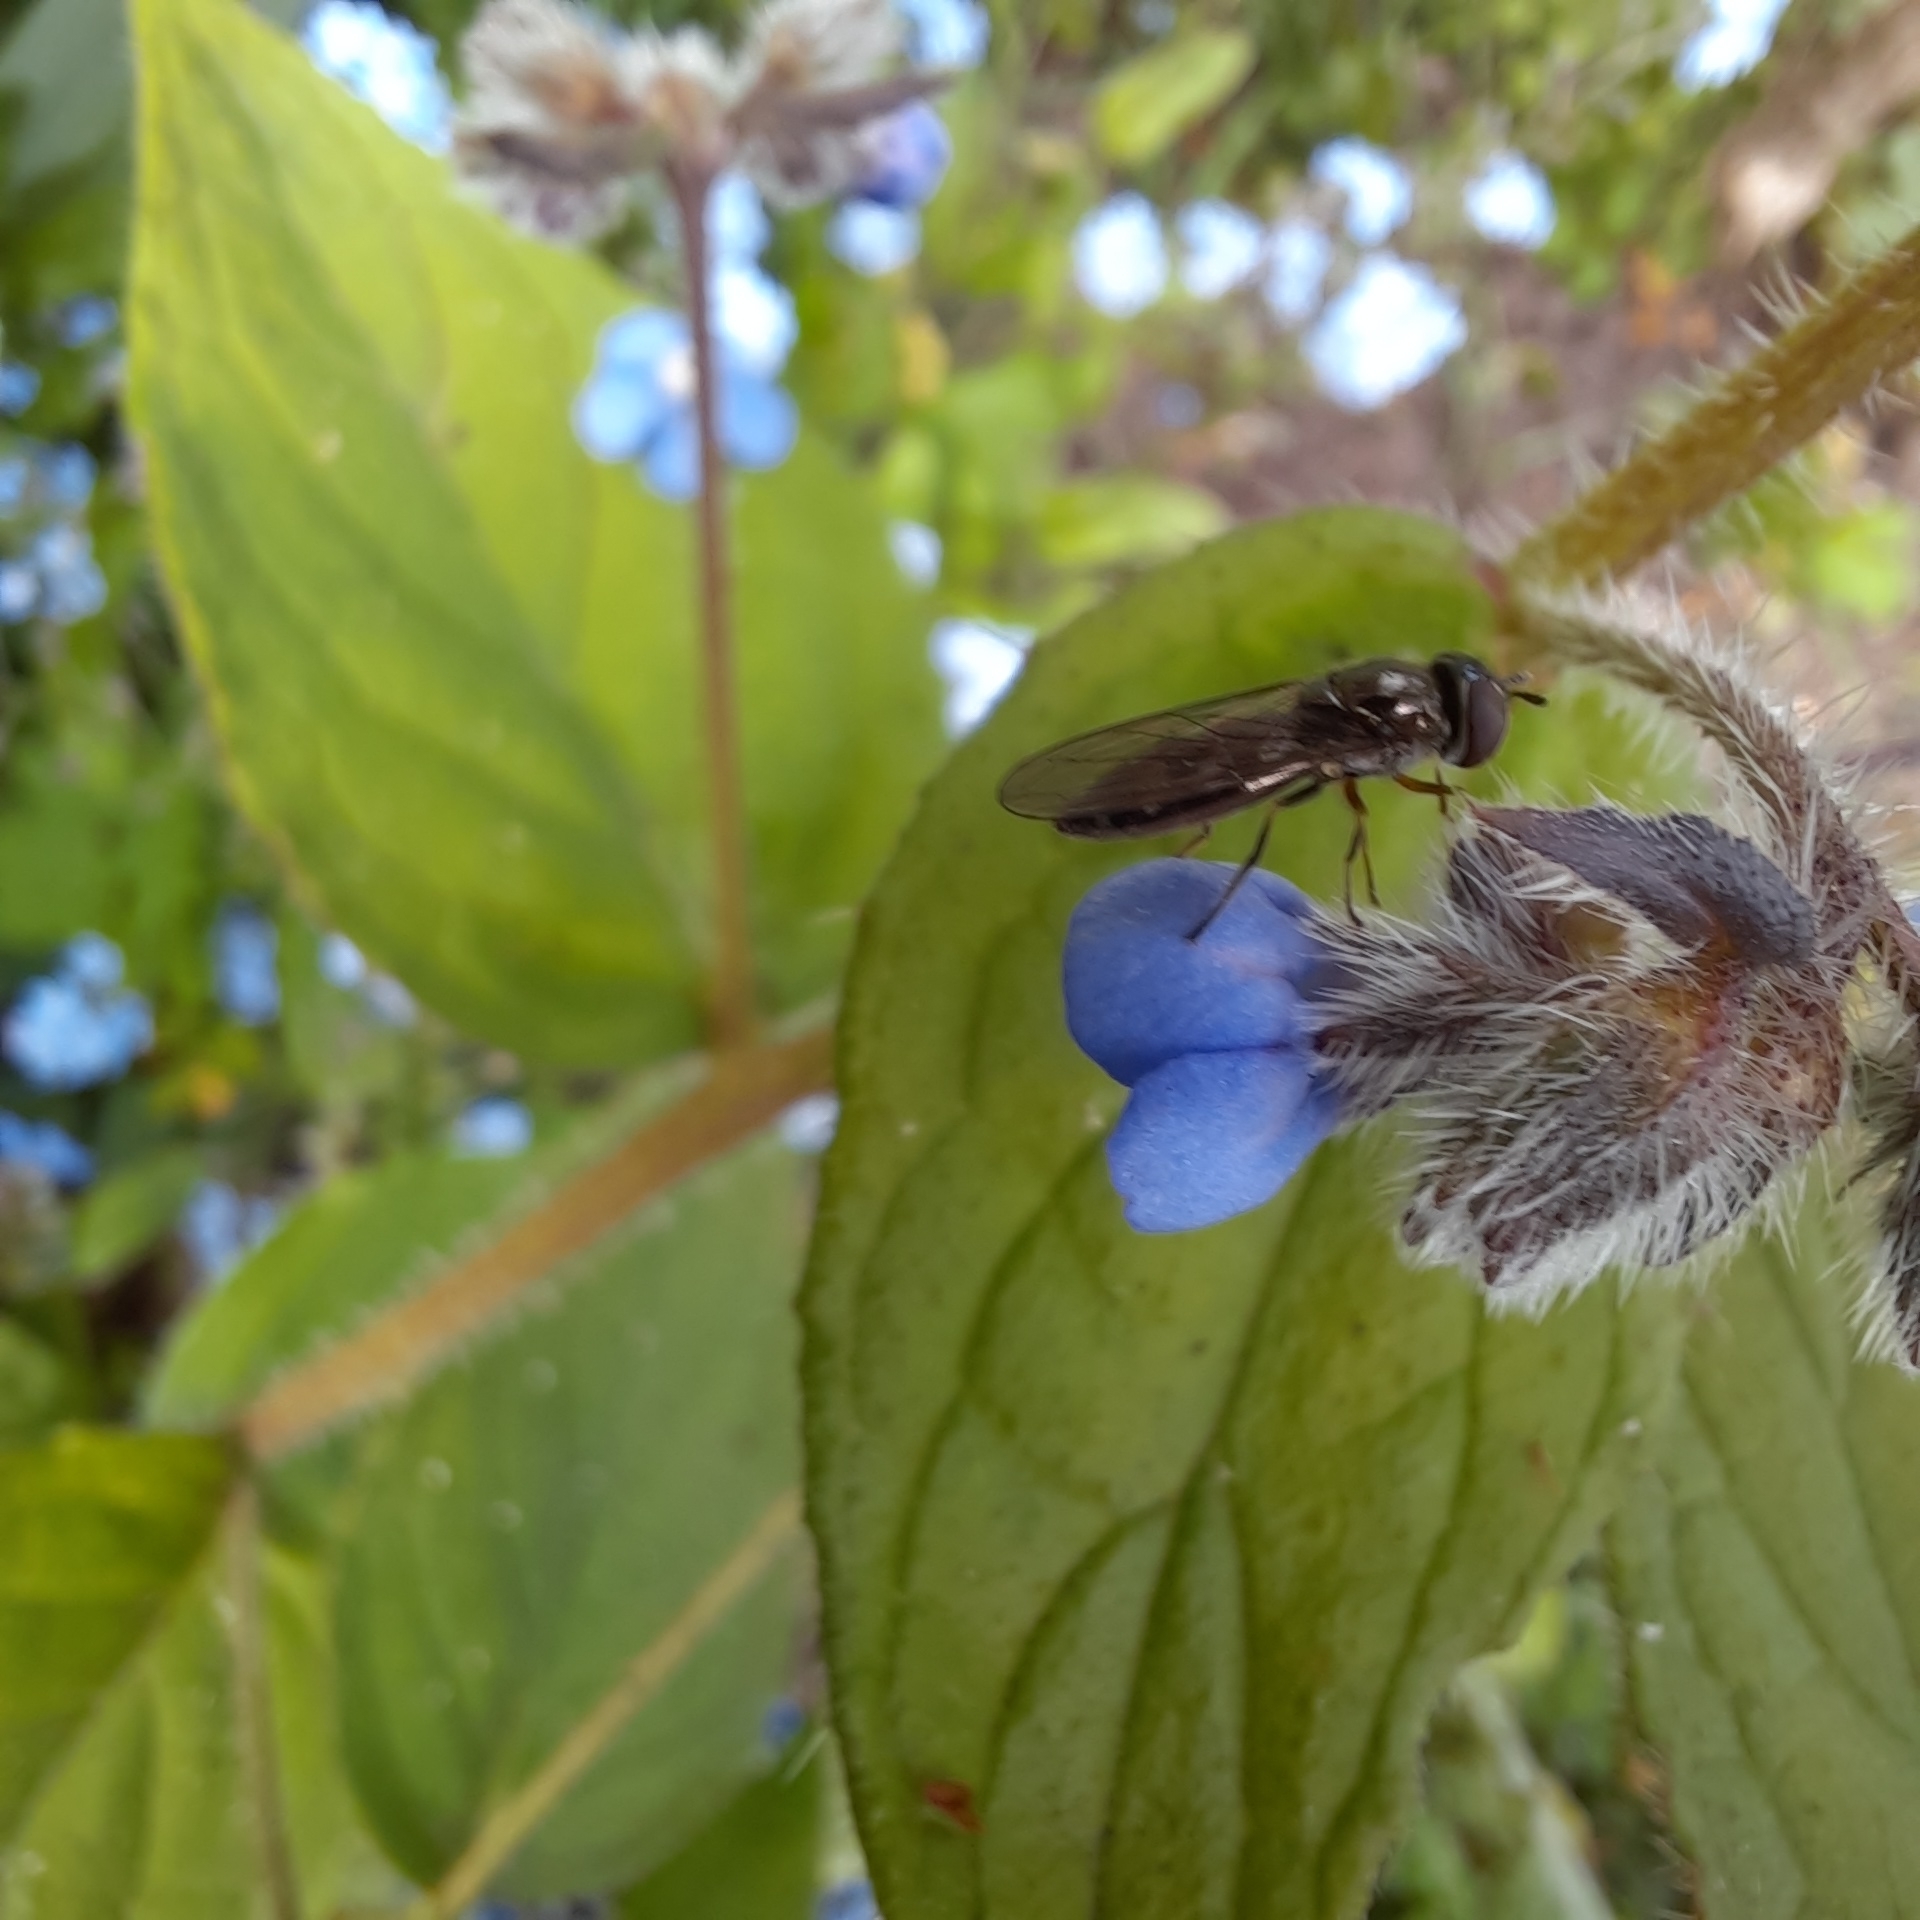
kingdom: Animalia
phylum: Arthropoda
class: Insecta
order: Diptera
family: Syrphidae
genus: Platycheirus
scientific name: Platycheirus albimanus
